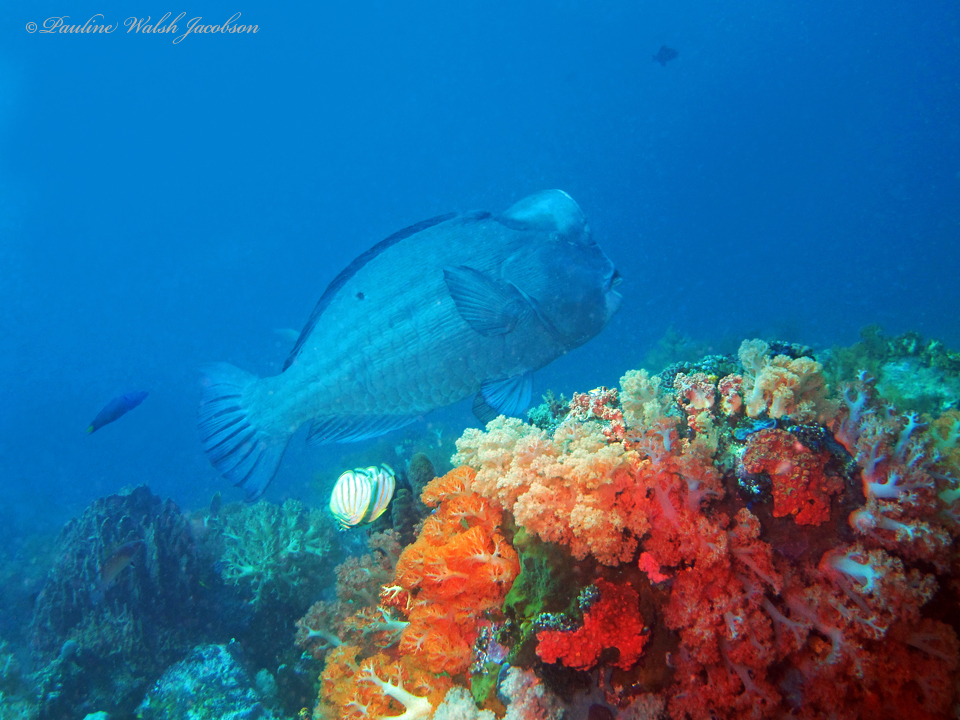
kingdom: Animalia
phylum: Chordata
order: Perciformes
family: Scaridae
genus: Bolbometopon
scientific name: Bolbometopon muricatum
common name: Humphead parrotfish
